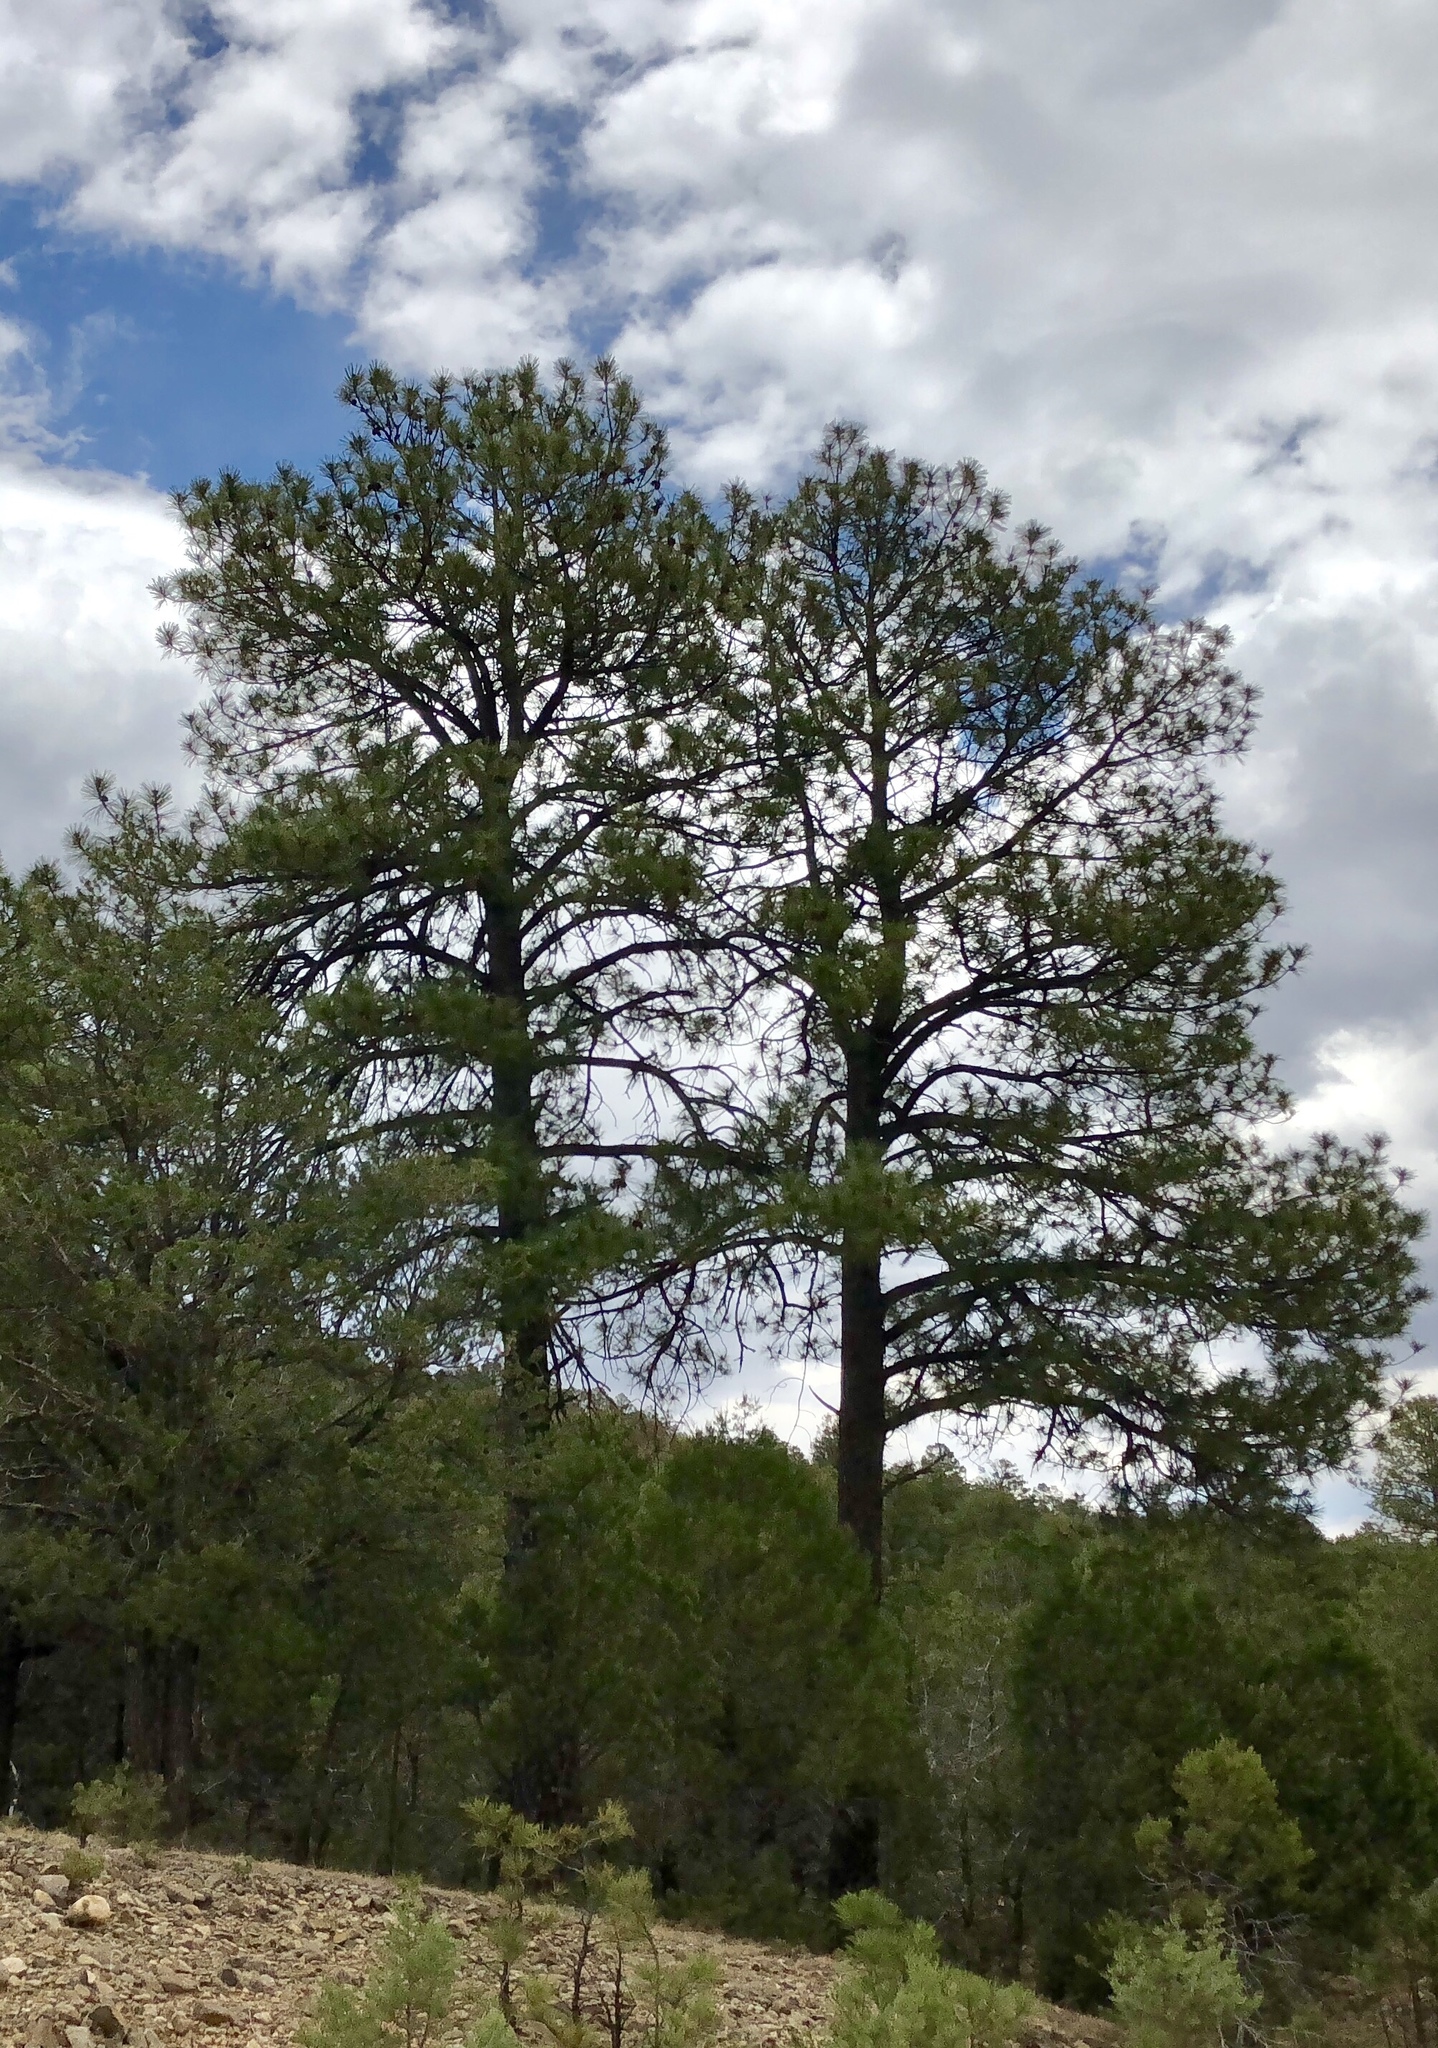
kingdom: Plantae
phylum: Tracheophyta
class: Pinopsida
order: Pinales
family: Pinaceae
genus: Pinus
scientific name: Pinus ponderosa
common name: Western yellow-pine
